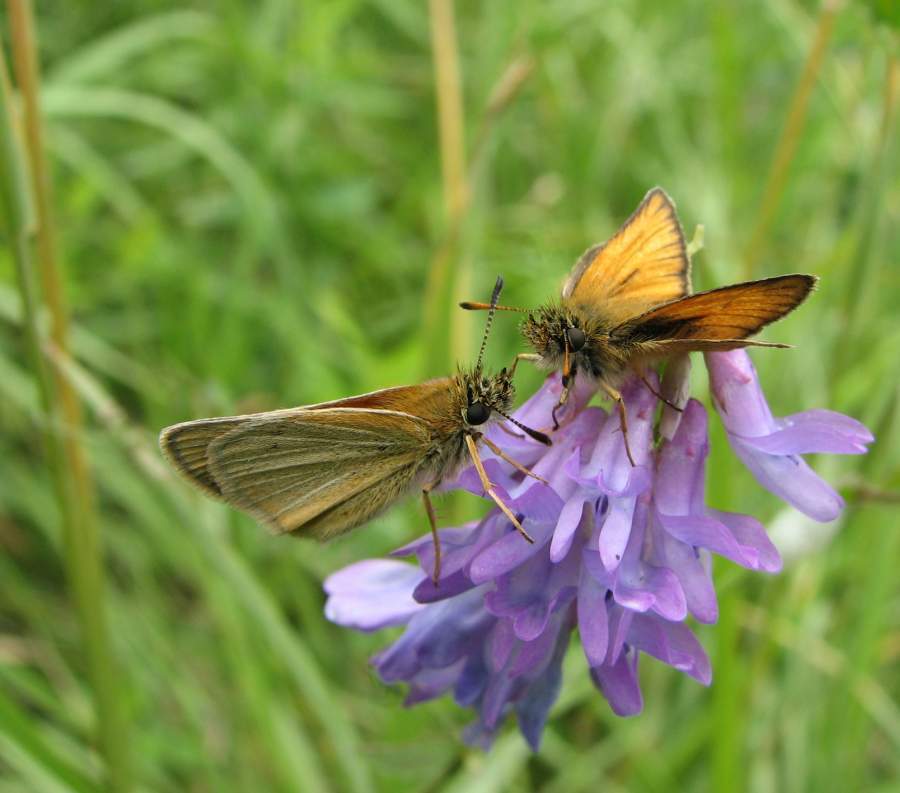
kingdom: Animalia
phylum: Arthropoda
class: Insecta
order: Lepidoptera
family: Hesperiidae
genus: Thymelicus
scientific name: Thymelicus lineola
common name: Essex skipper
